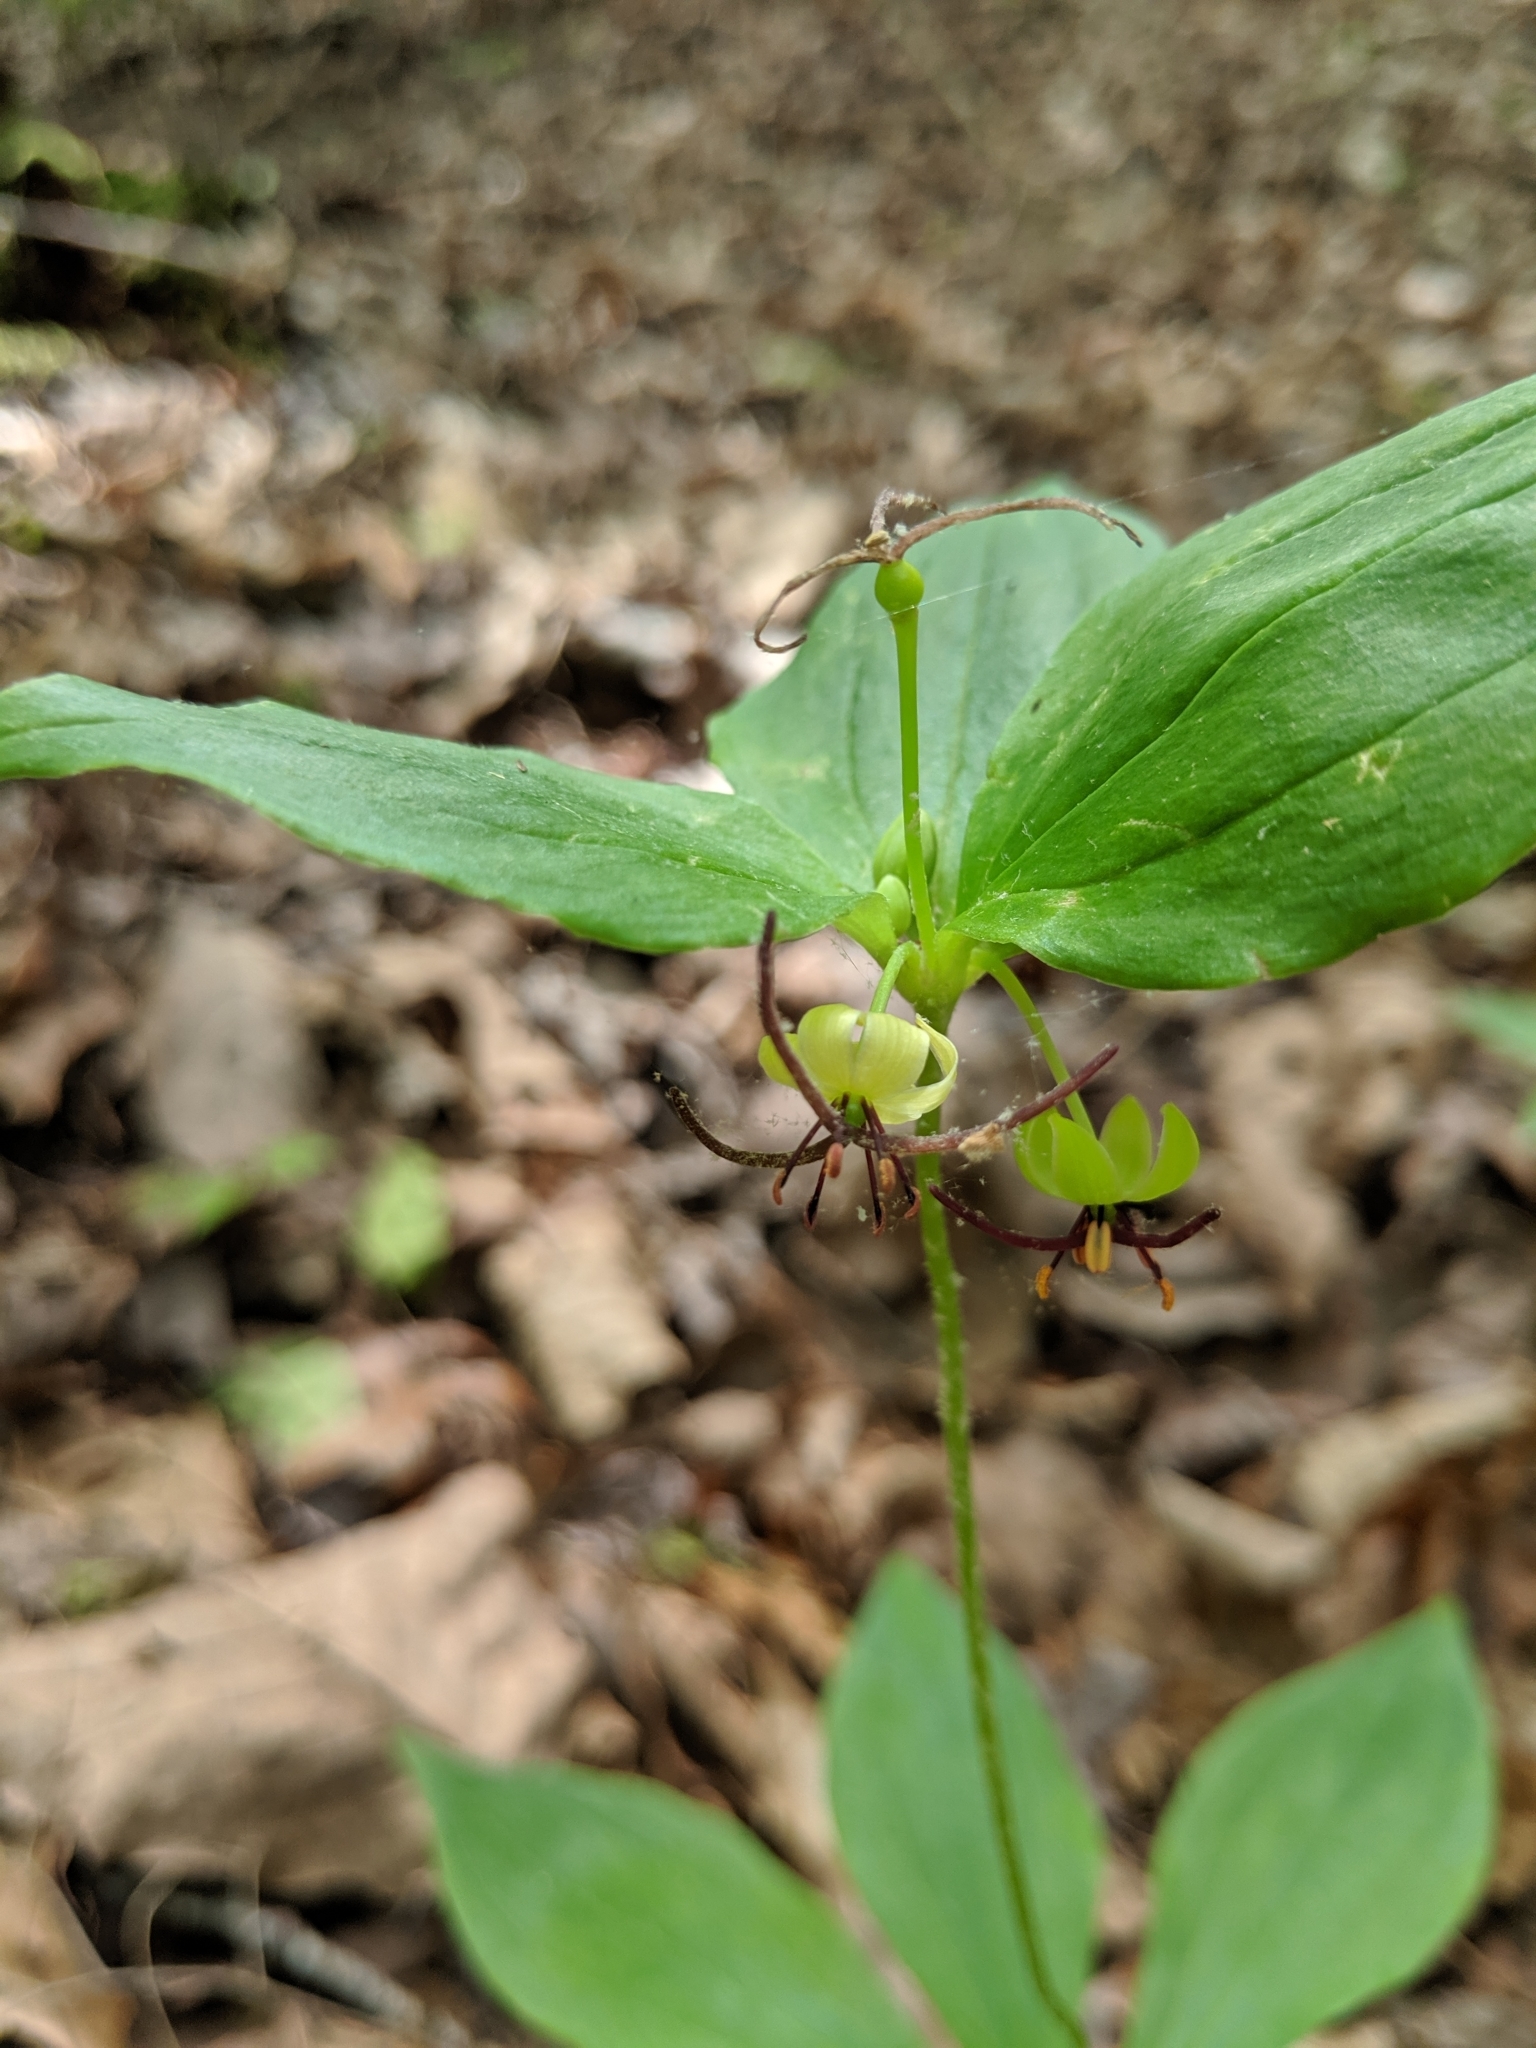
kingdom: Plantae
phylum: Tracheophyta
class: Liliopsida
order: Liliales
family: Liliaceae
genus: Medeola
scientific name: Medeola virginiana
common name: Indian cucumber-root
